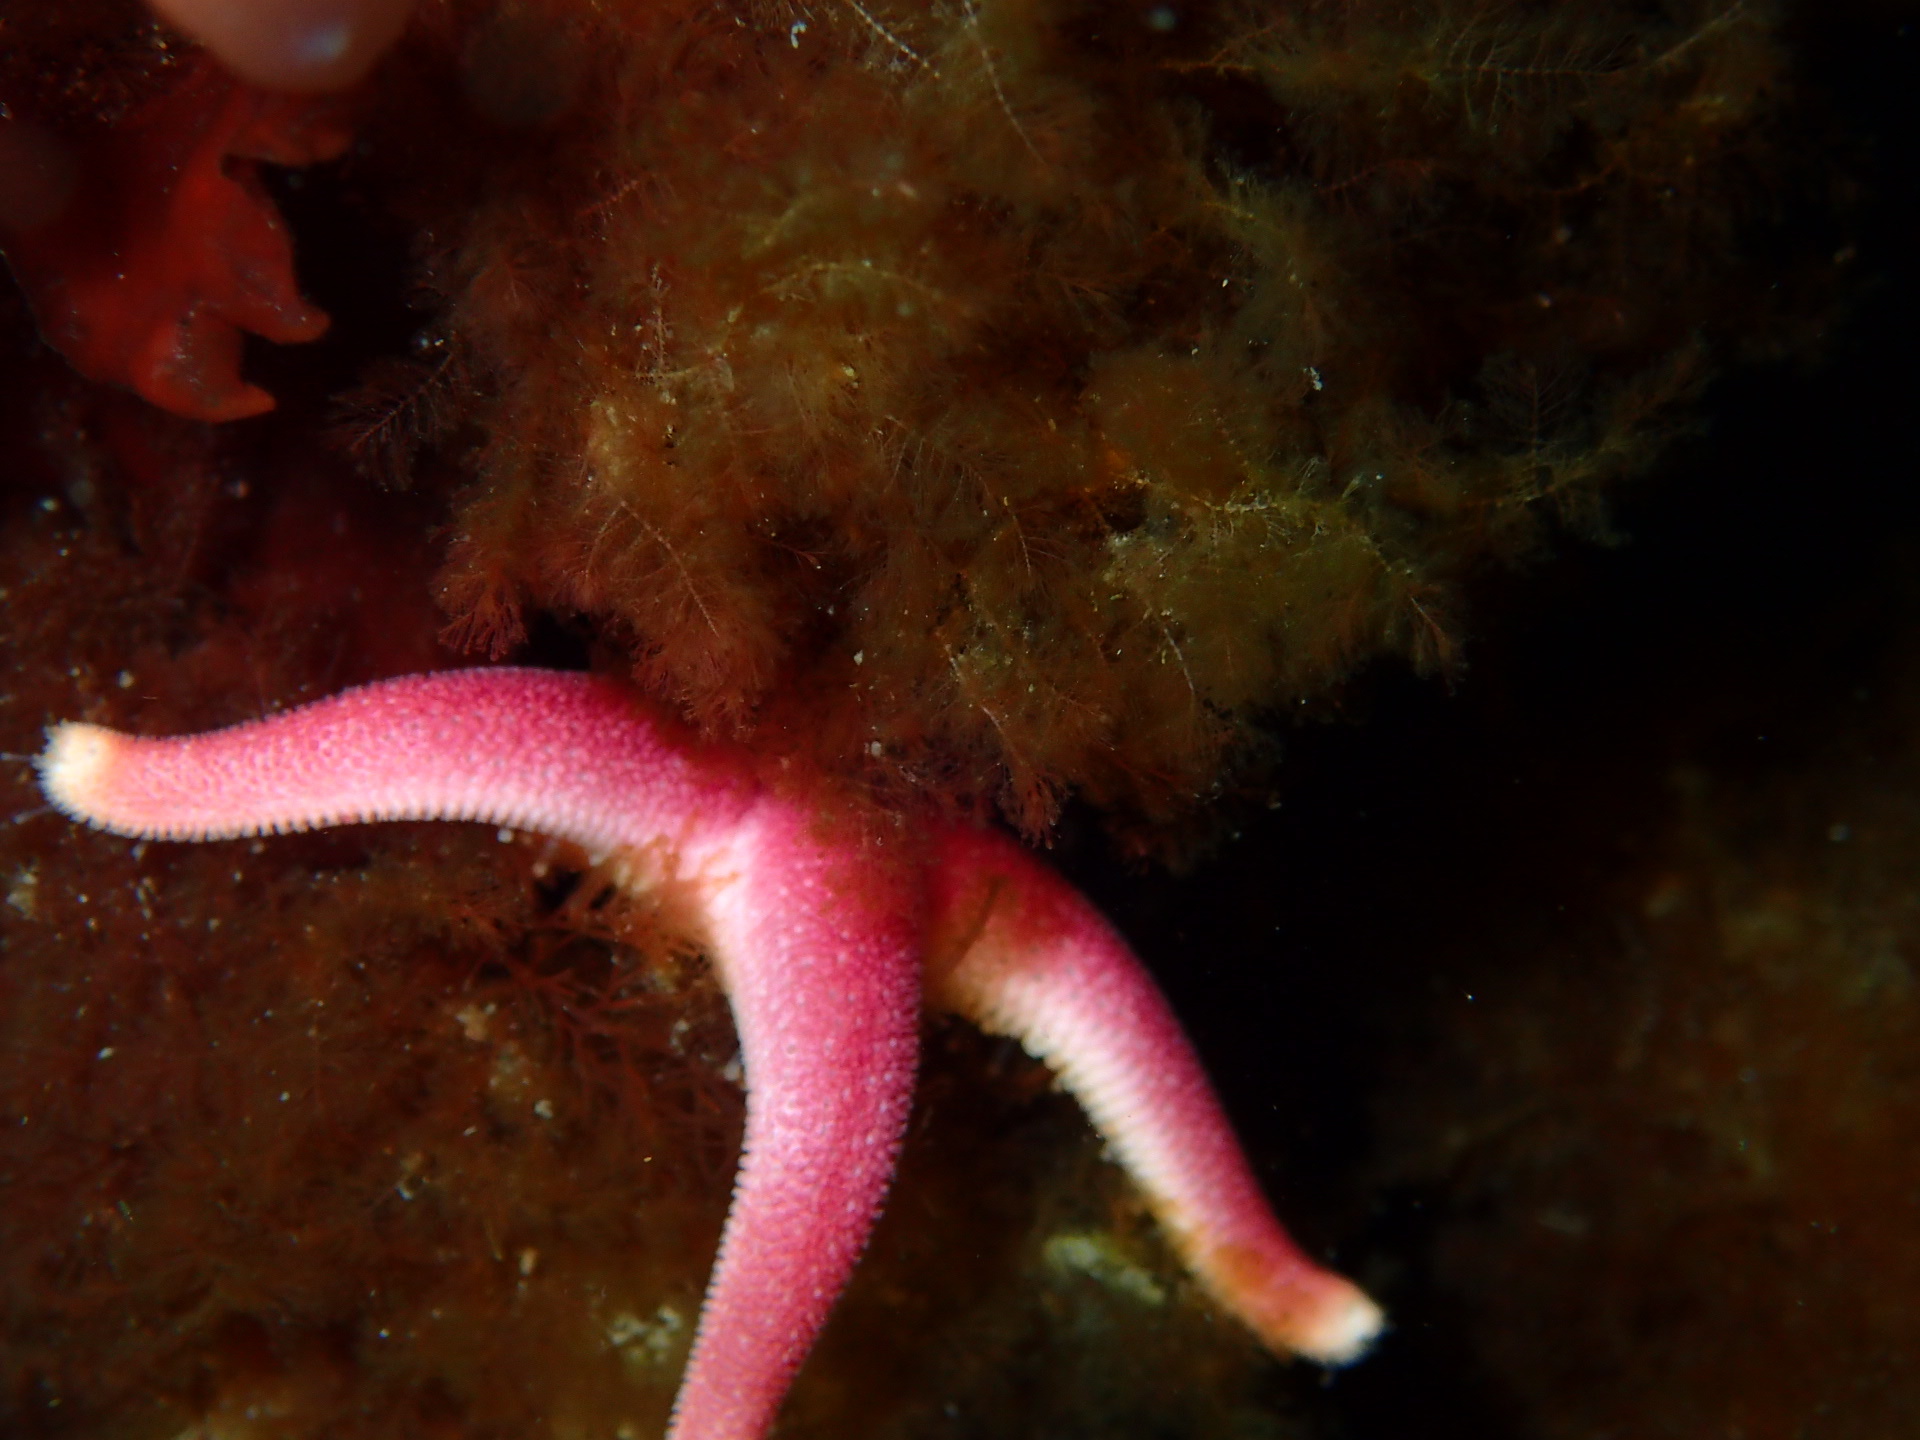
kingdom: Animalia
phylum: Echinodermata
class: Asteroidea
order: Spinulosida
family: Echinasteridae
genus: Henricia
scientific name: Henricia sanguinolenta
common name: Blood star
